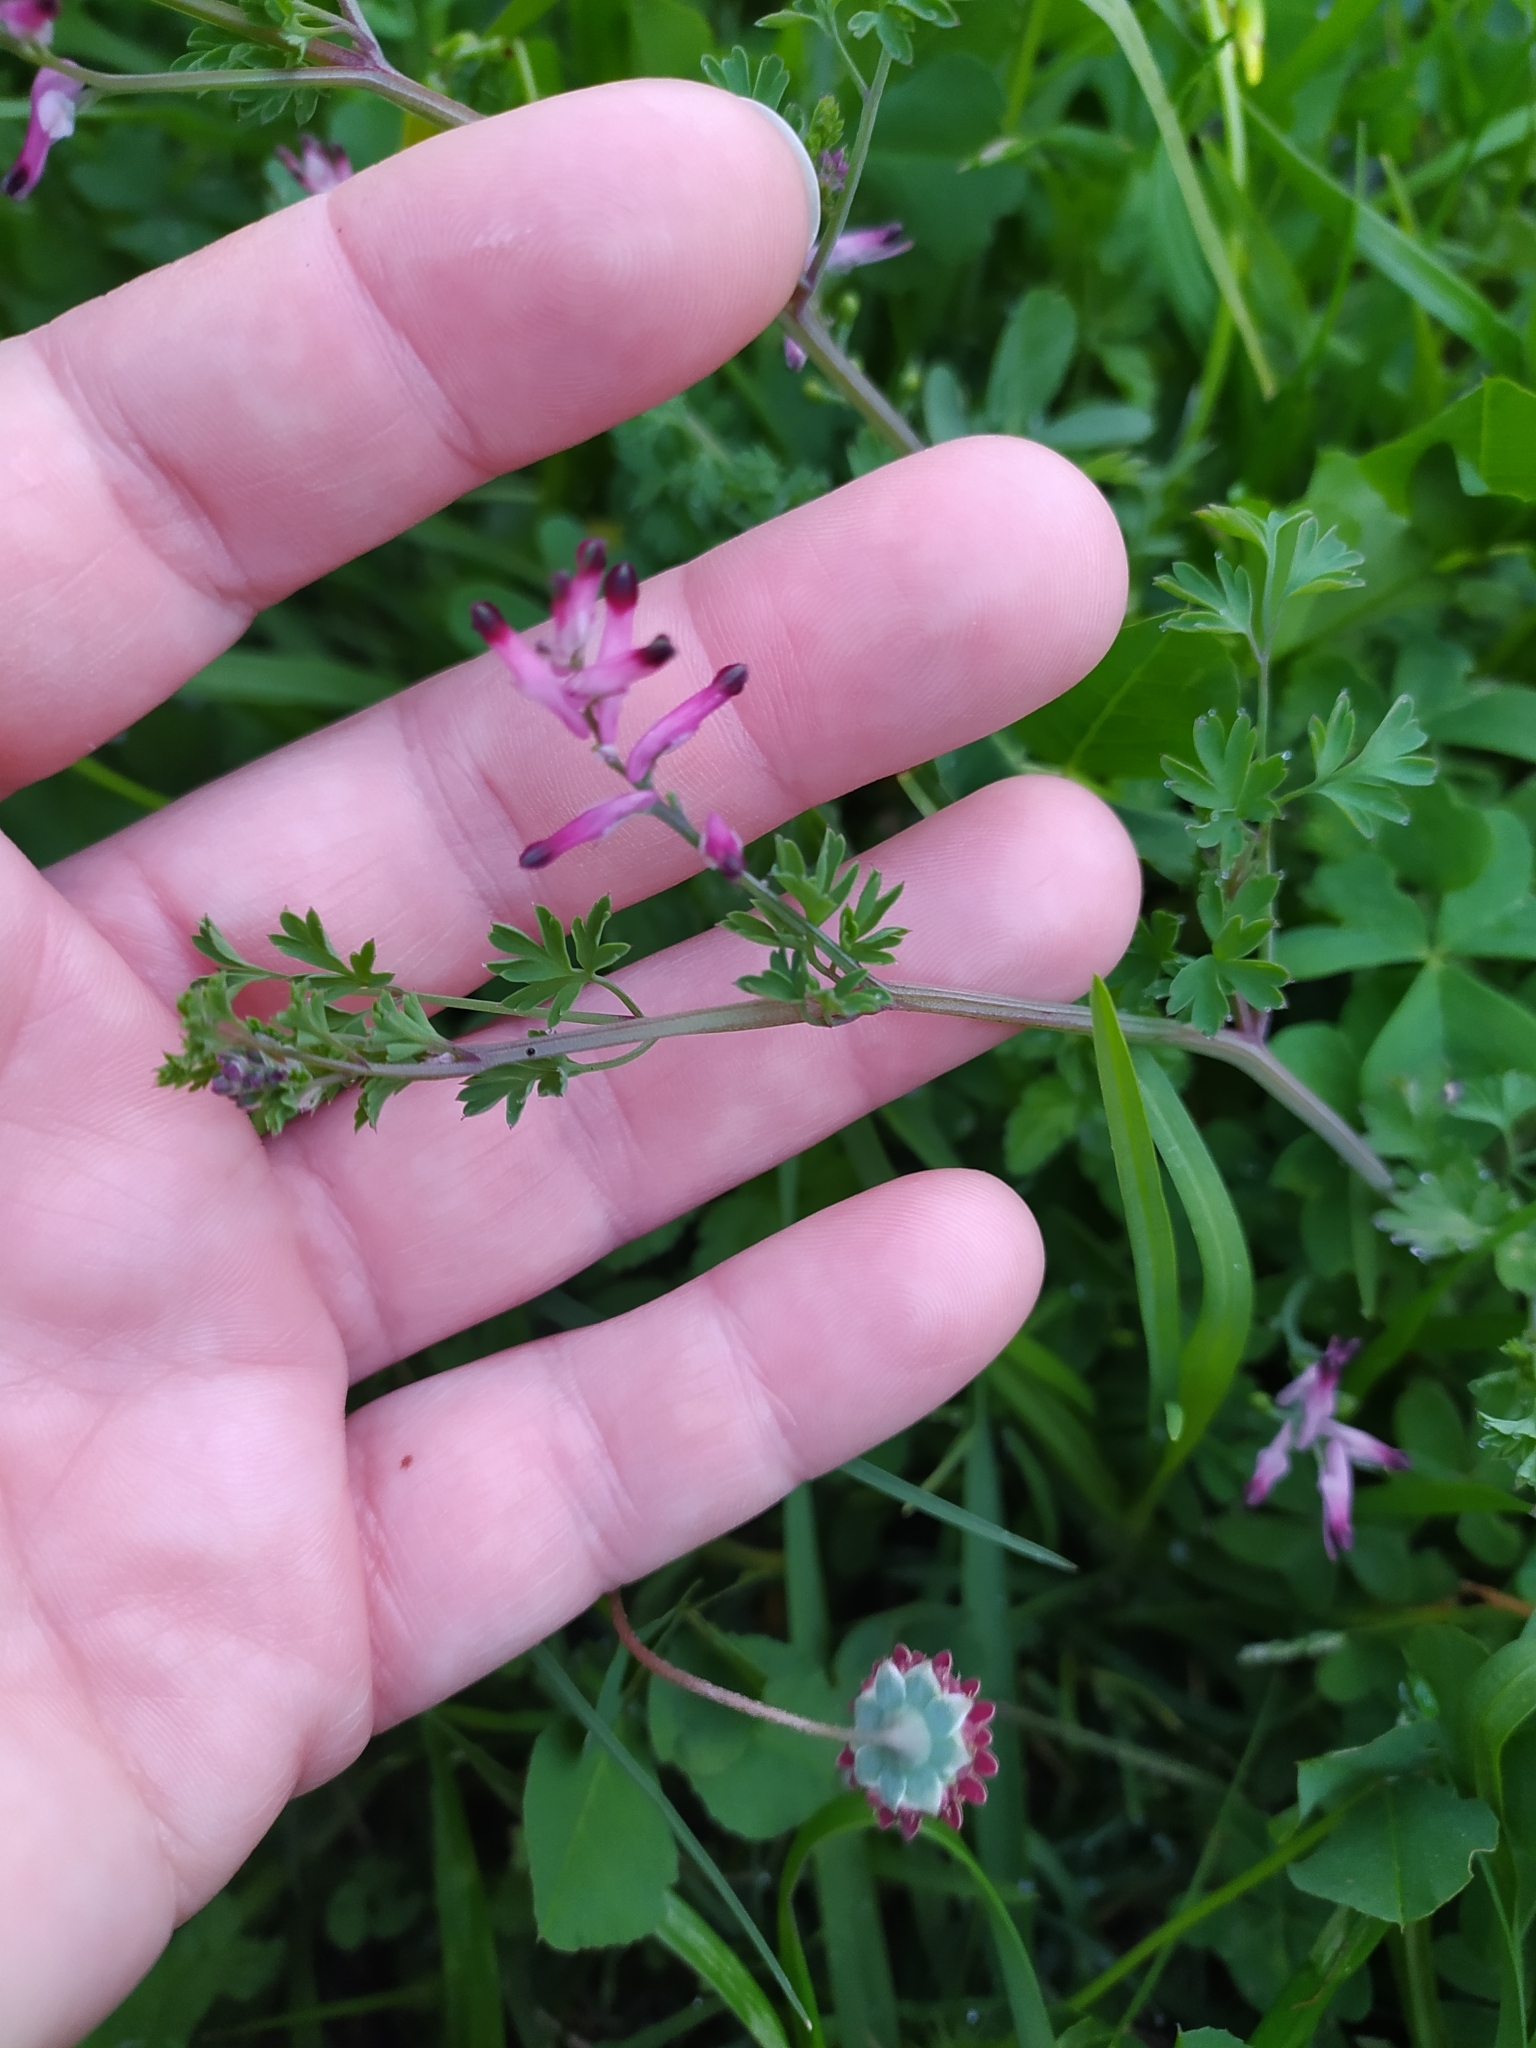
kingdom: Plantae
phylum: Tracheophyta
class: Magnoliopsida
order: Ranunculales
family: Papaveraceae
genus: Fumaria
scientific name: Fumaria muralis
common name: Common ramping-fumitory
